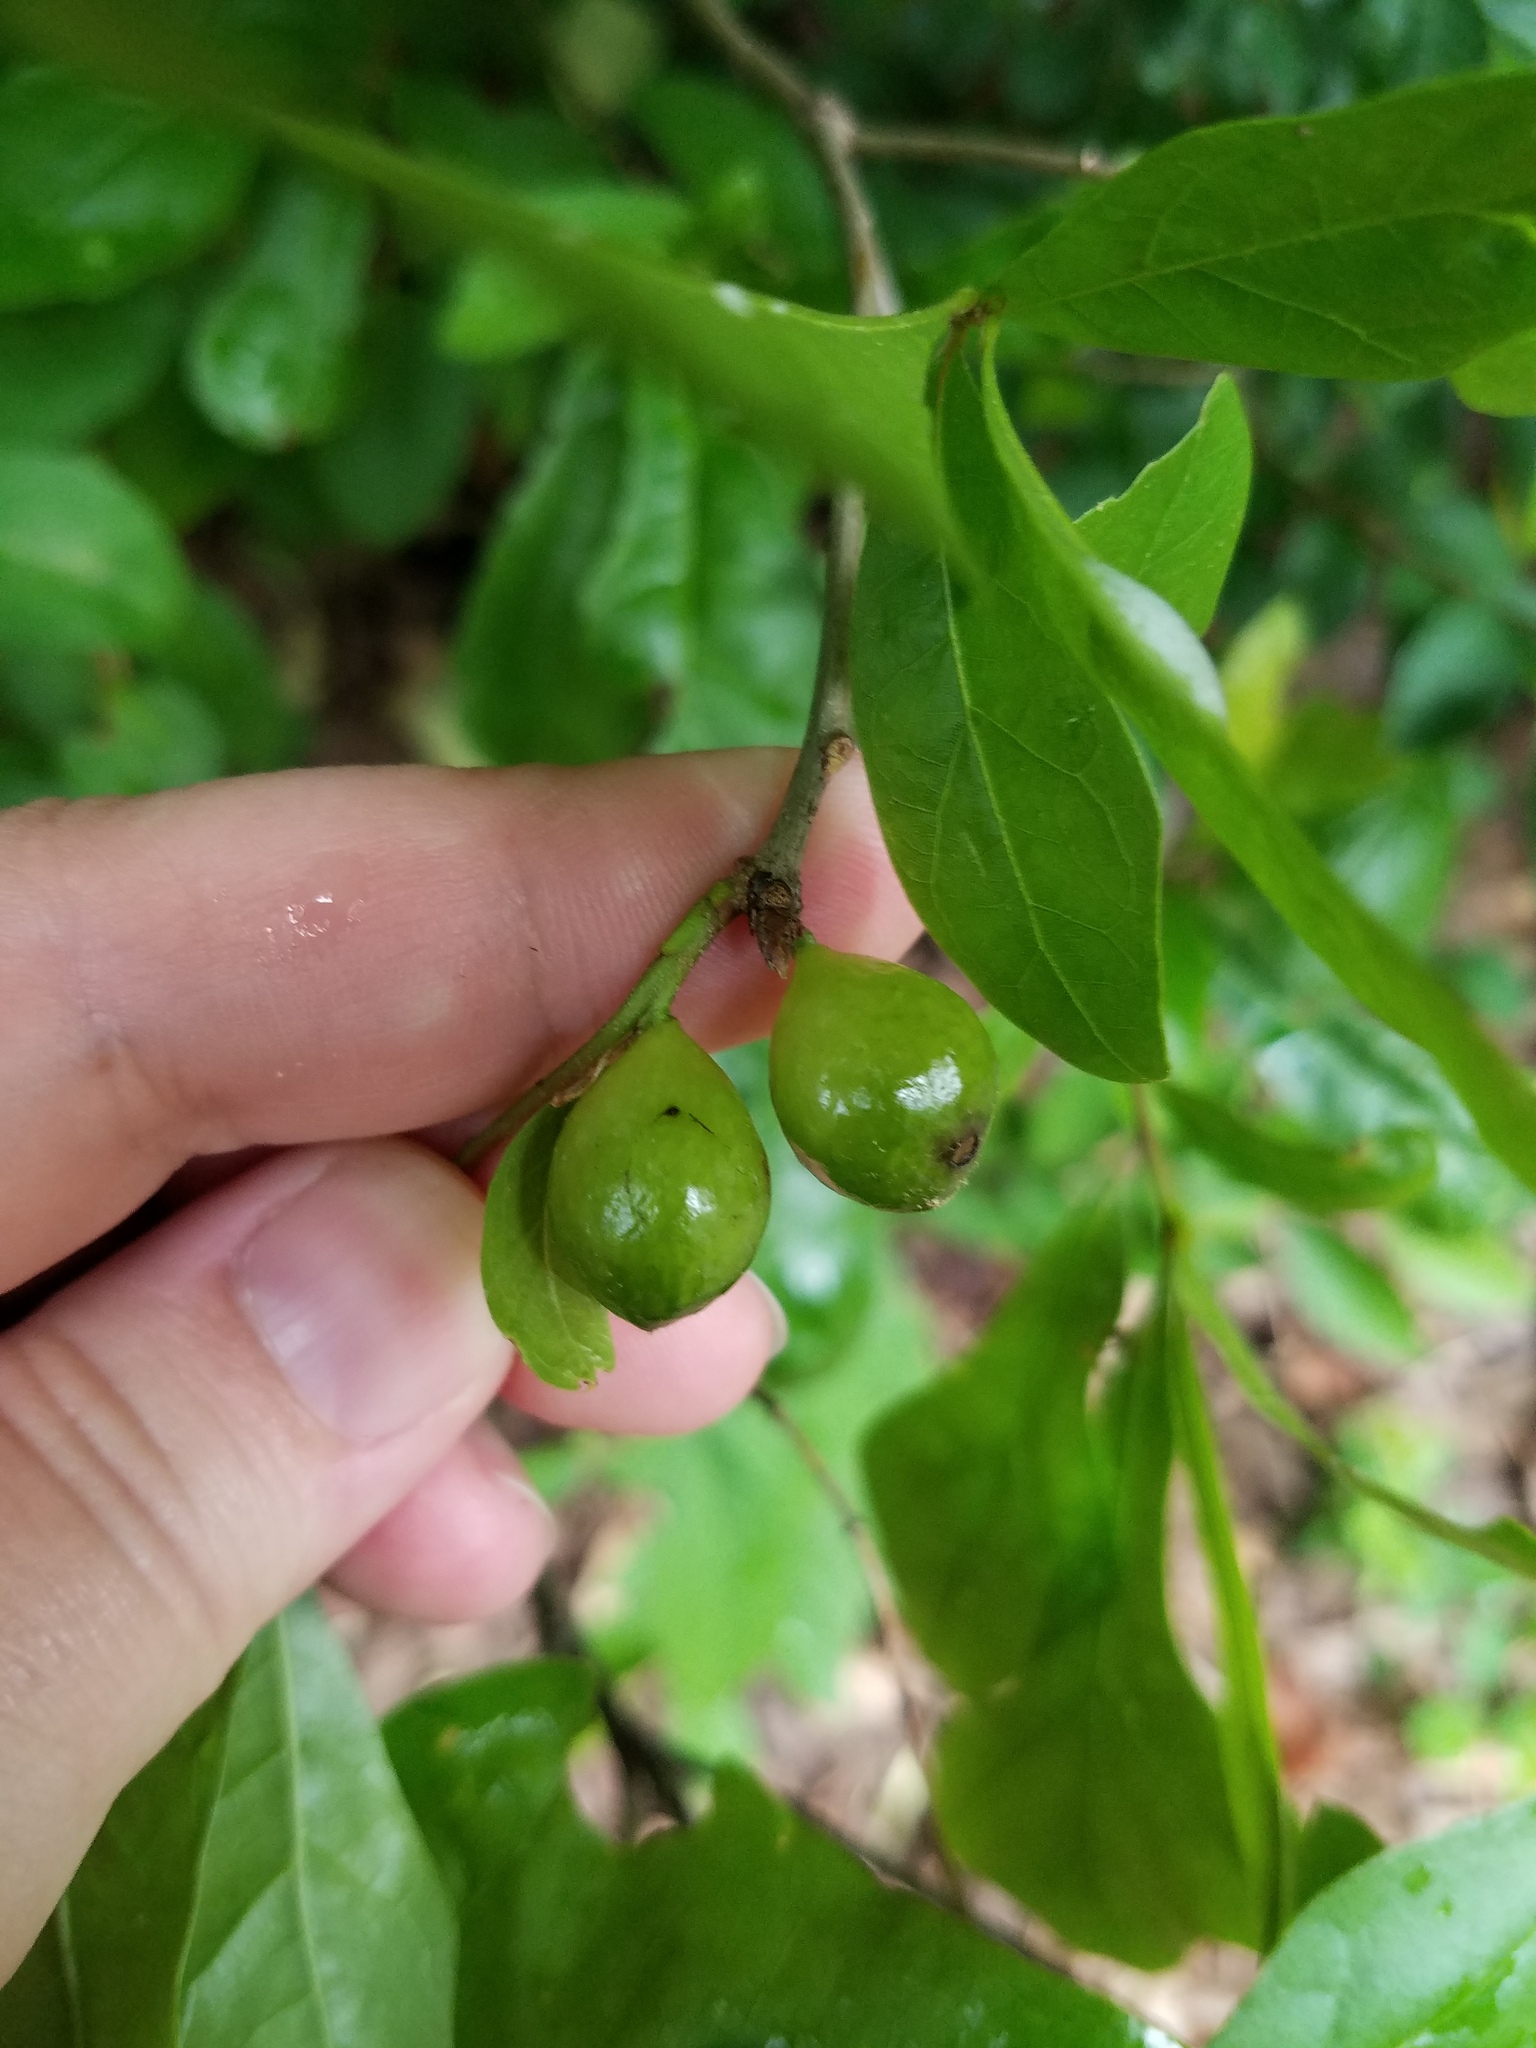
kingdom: Animalia
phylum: Arthropoda
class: Insecta
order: Hymenoptera
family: Cynipidae
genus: Amphibolips
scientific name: Amphibolips
